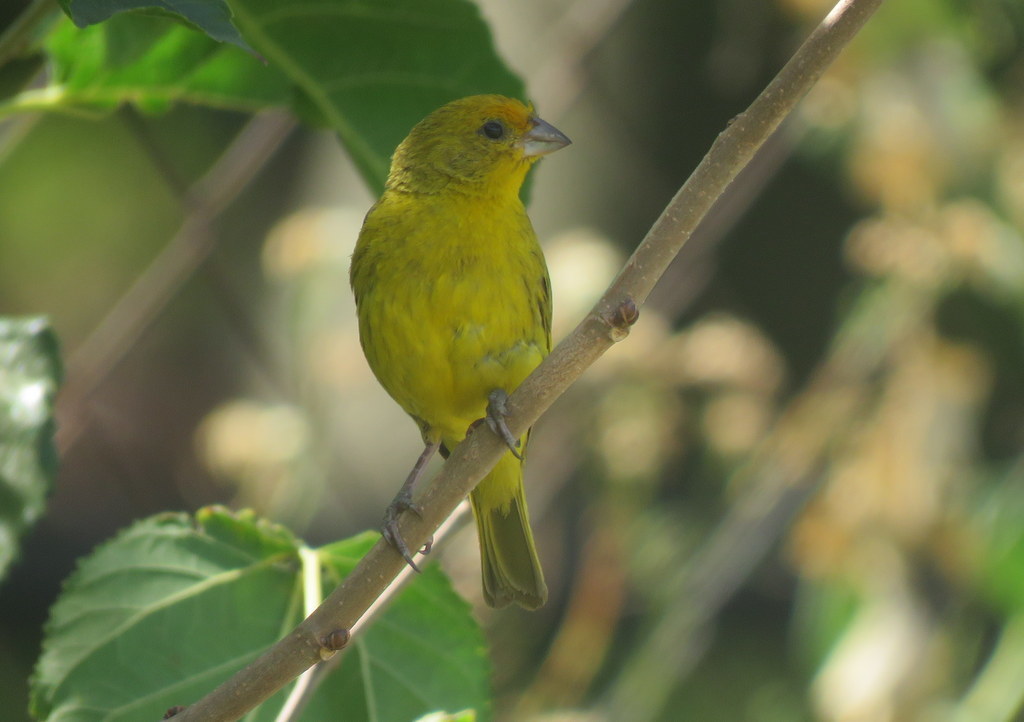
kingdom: Animalia
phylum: Chordata
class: Aves
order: Passeriformes
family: Thraupidae
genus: Sicalis
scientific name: Sicalis flaveola
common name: Saffron finch
